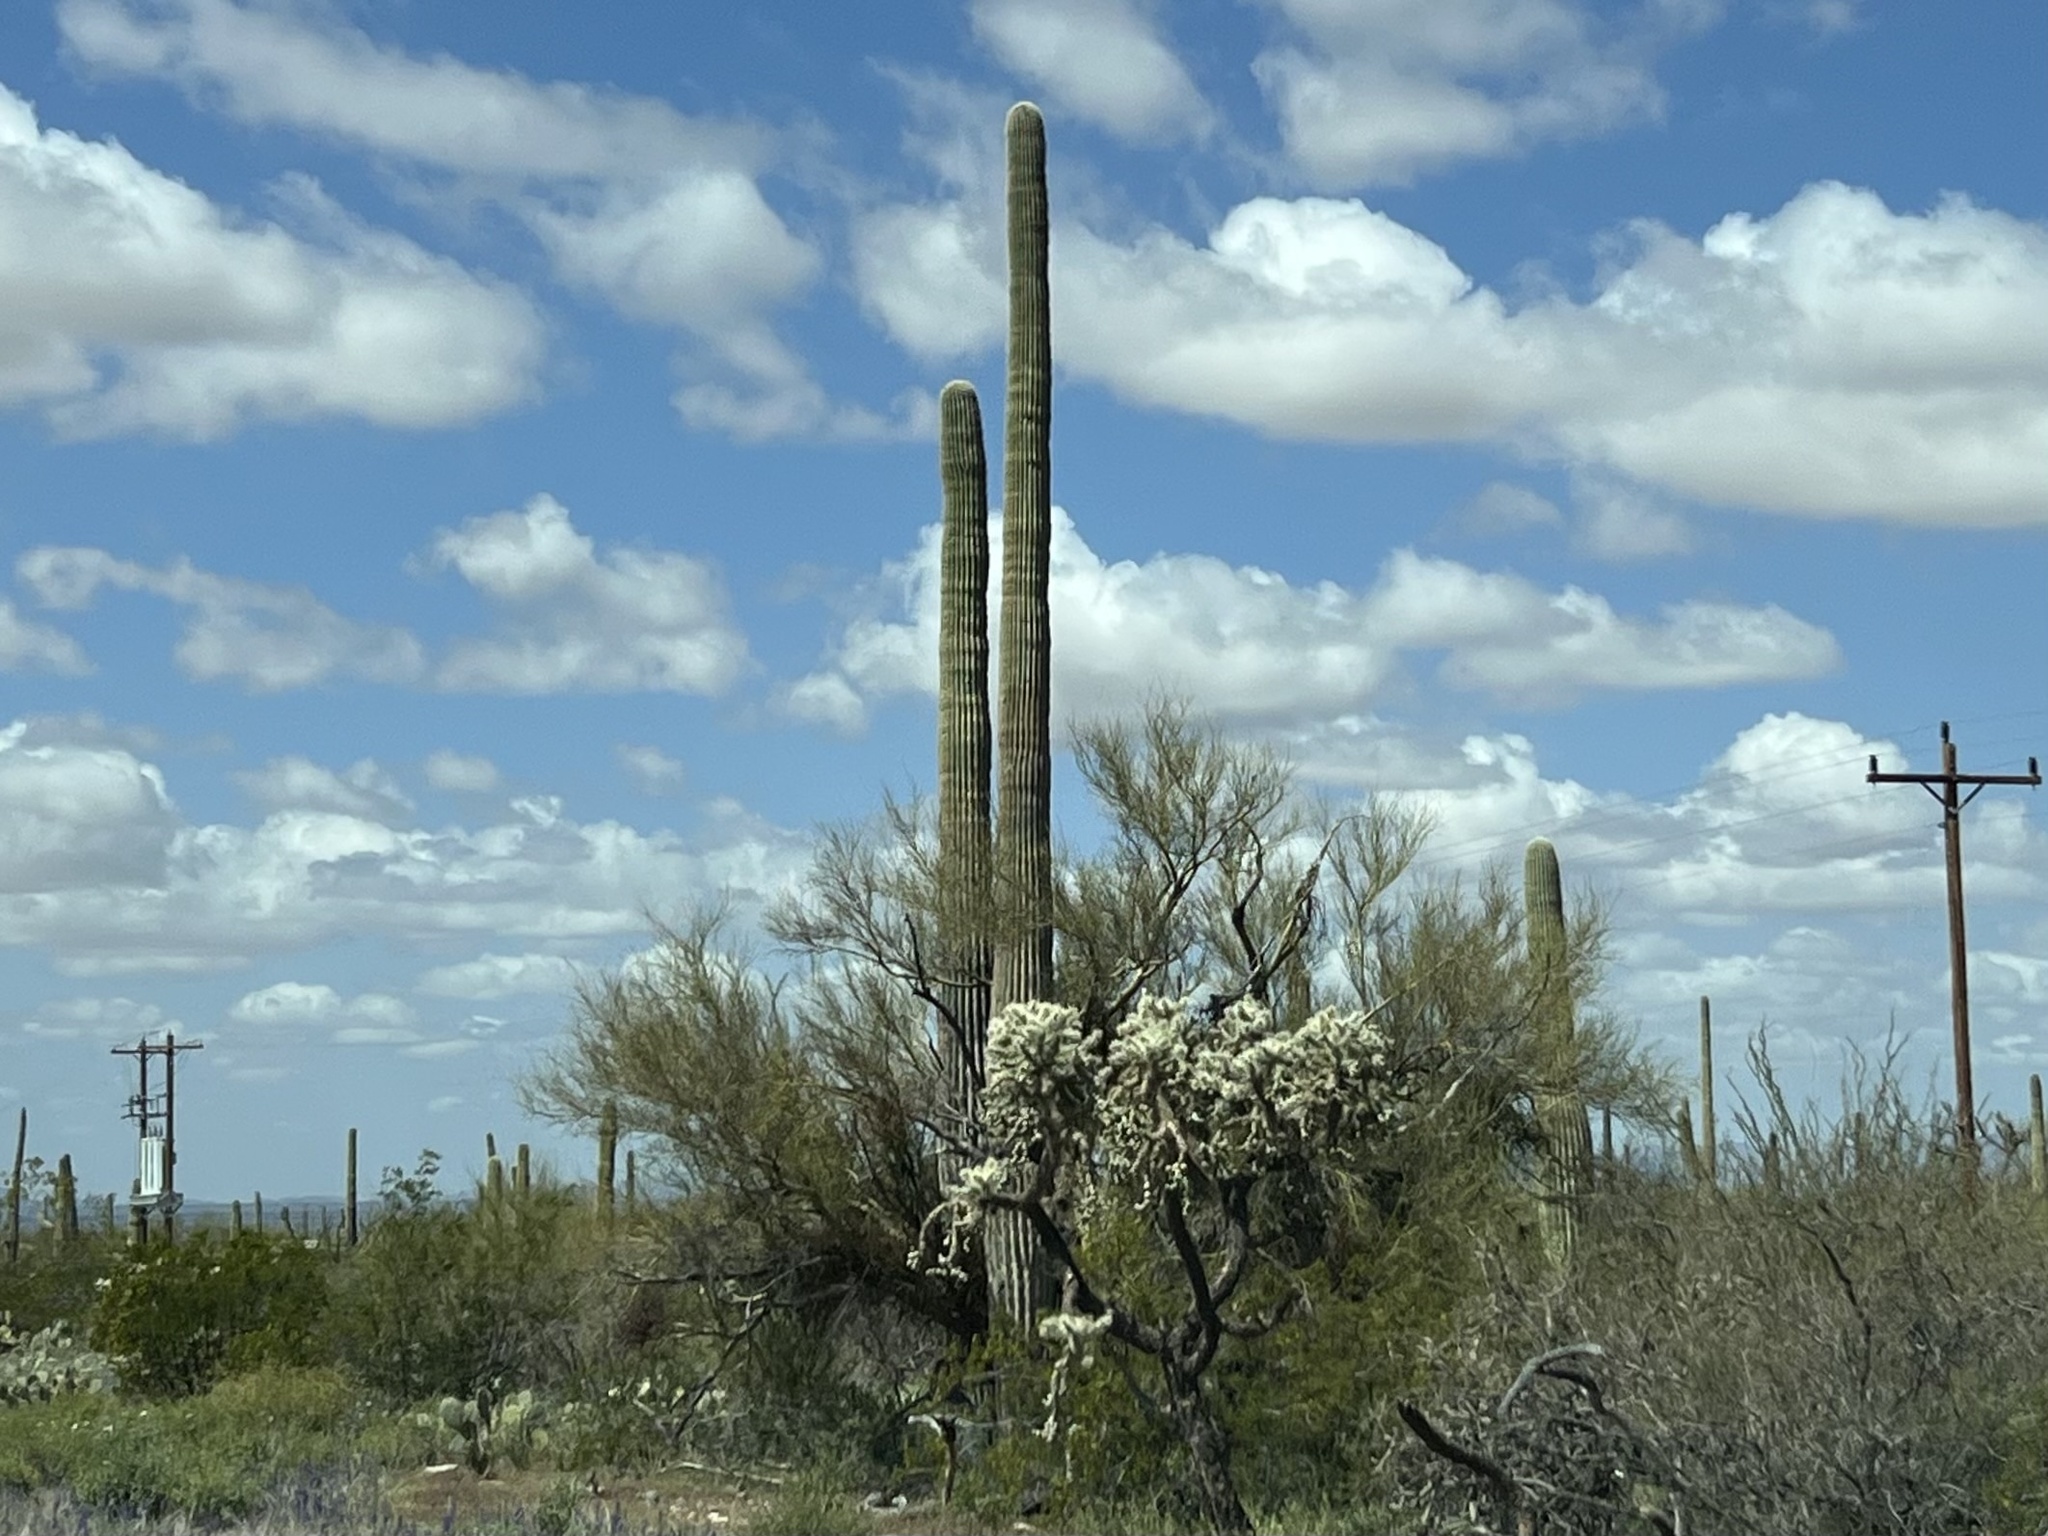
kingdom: Plantae
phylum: Tracheophyta
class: Magnoliopsida
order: Caryophyllales
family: Cactaceae
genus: Carnegiea
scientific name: Carnegiea gigantea
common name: Saguaro
